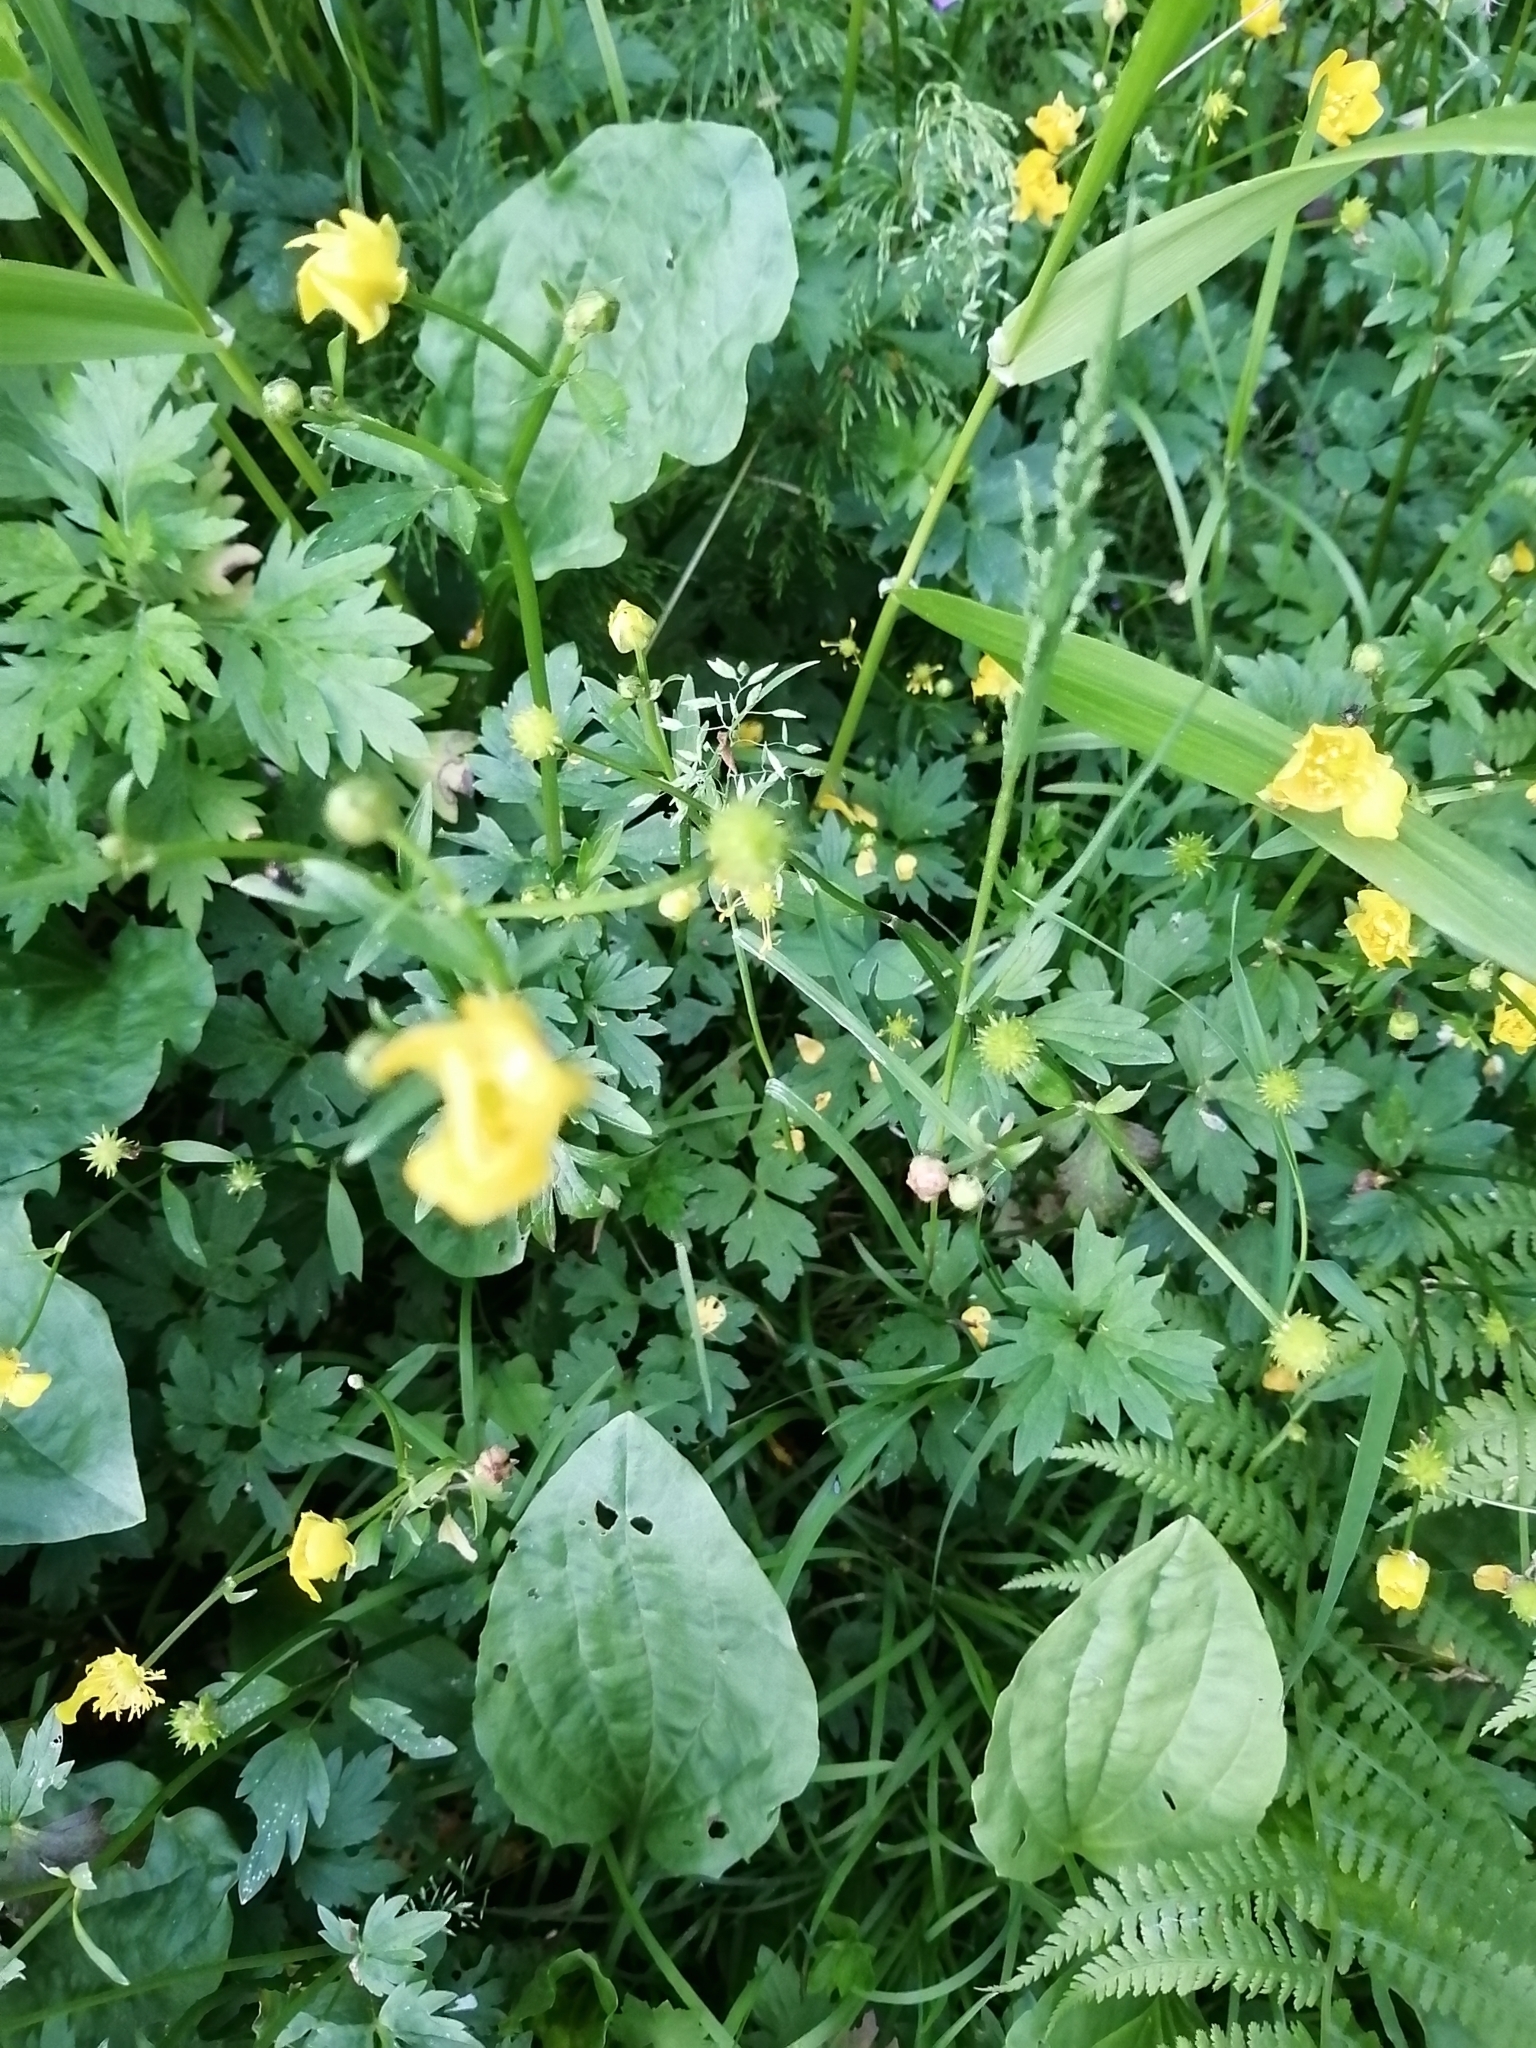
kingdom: Plantae
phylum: Tracheophyta
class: Magnoliopsida
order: Ranunculales
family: Ranunculaceae
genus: Ranunculus
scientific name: Ranunculus repens
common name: Creeping buttercup
